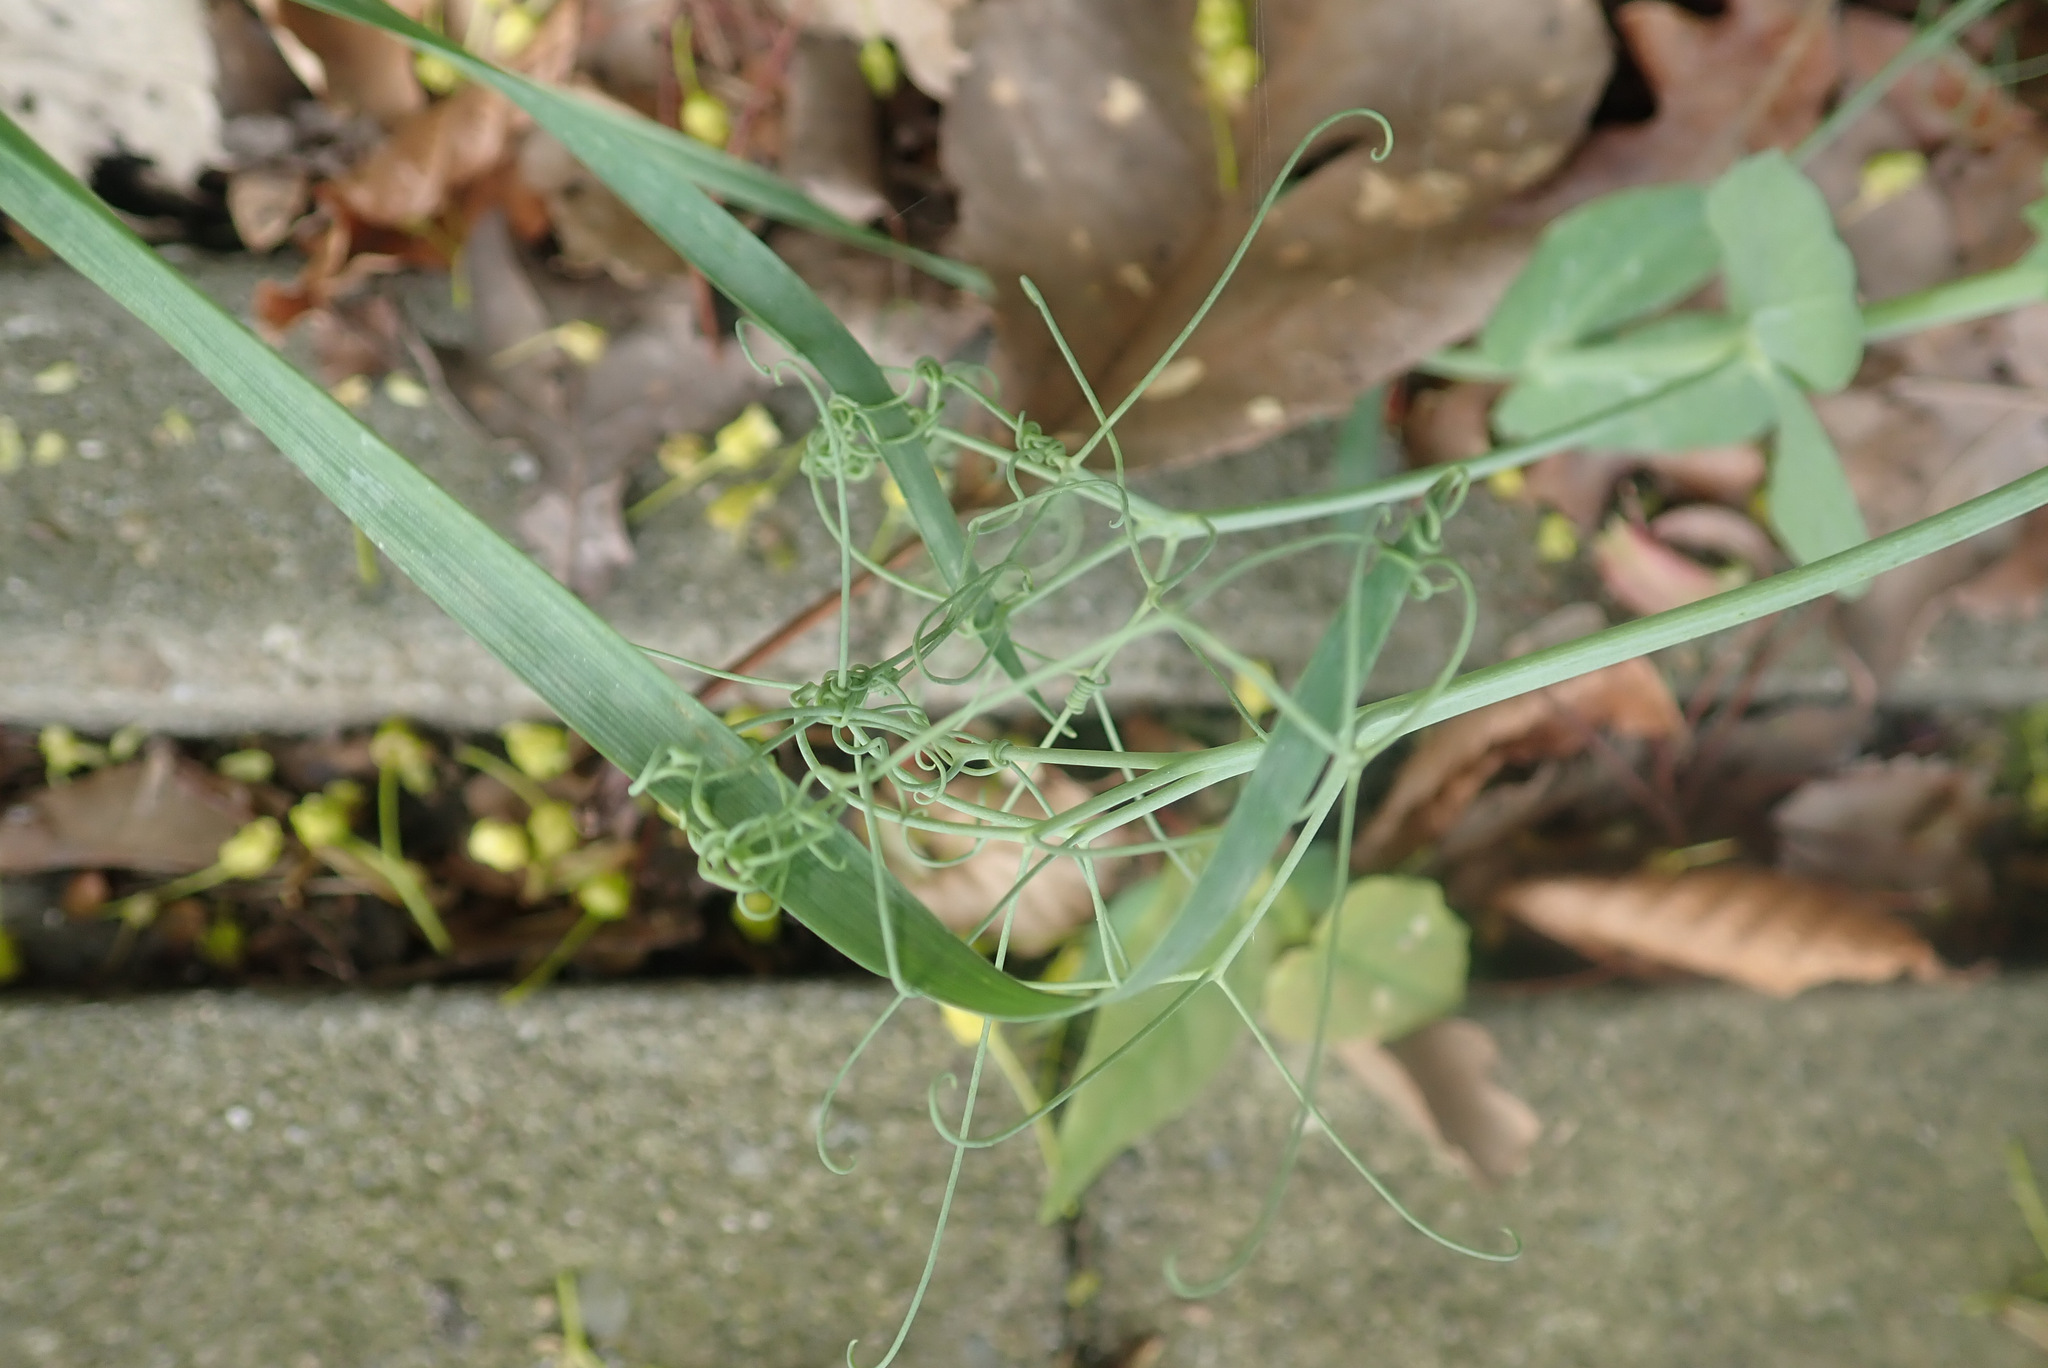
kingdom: Plantae
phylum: Tracheophyta
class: Magnoliopsida
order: Fabales
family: Fabaceae
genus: Lathyrus
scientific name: Lathyrus oleraceus
